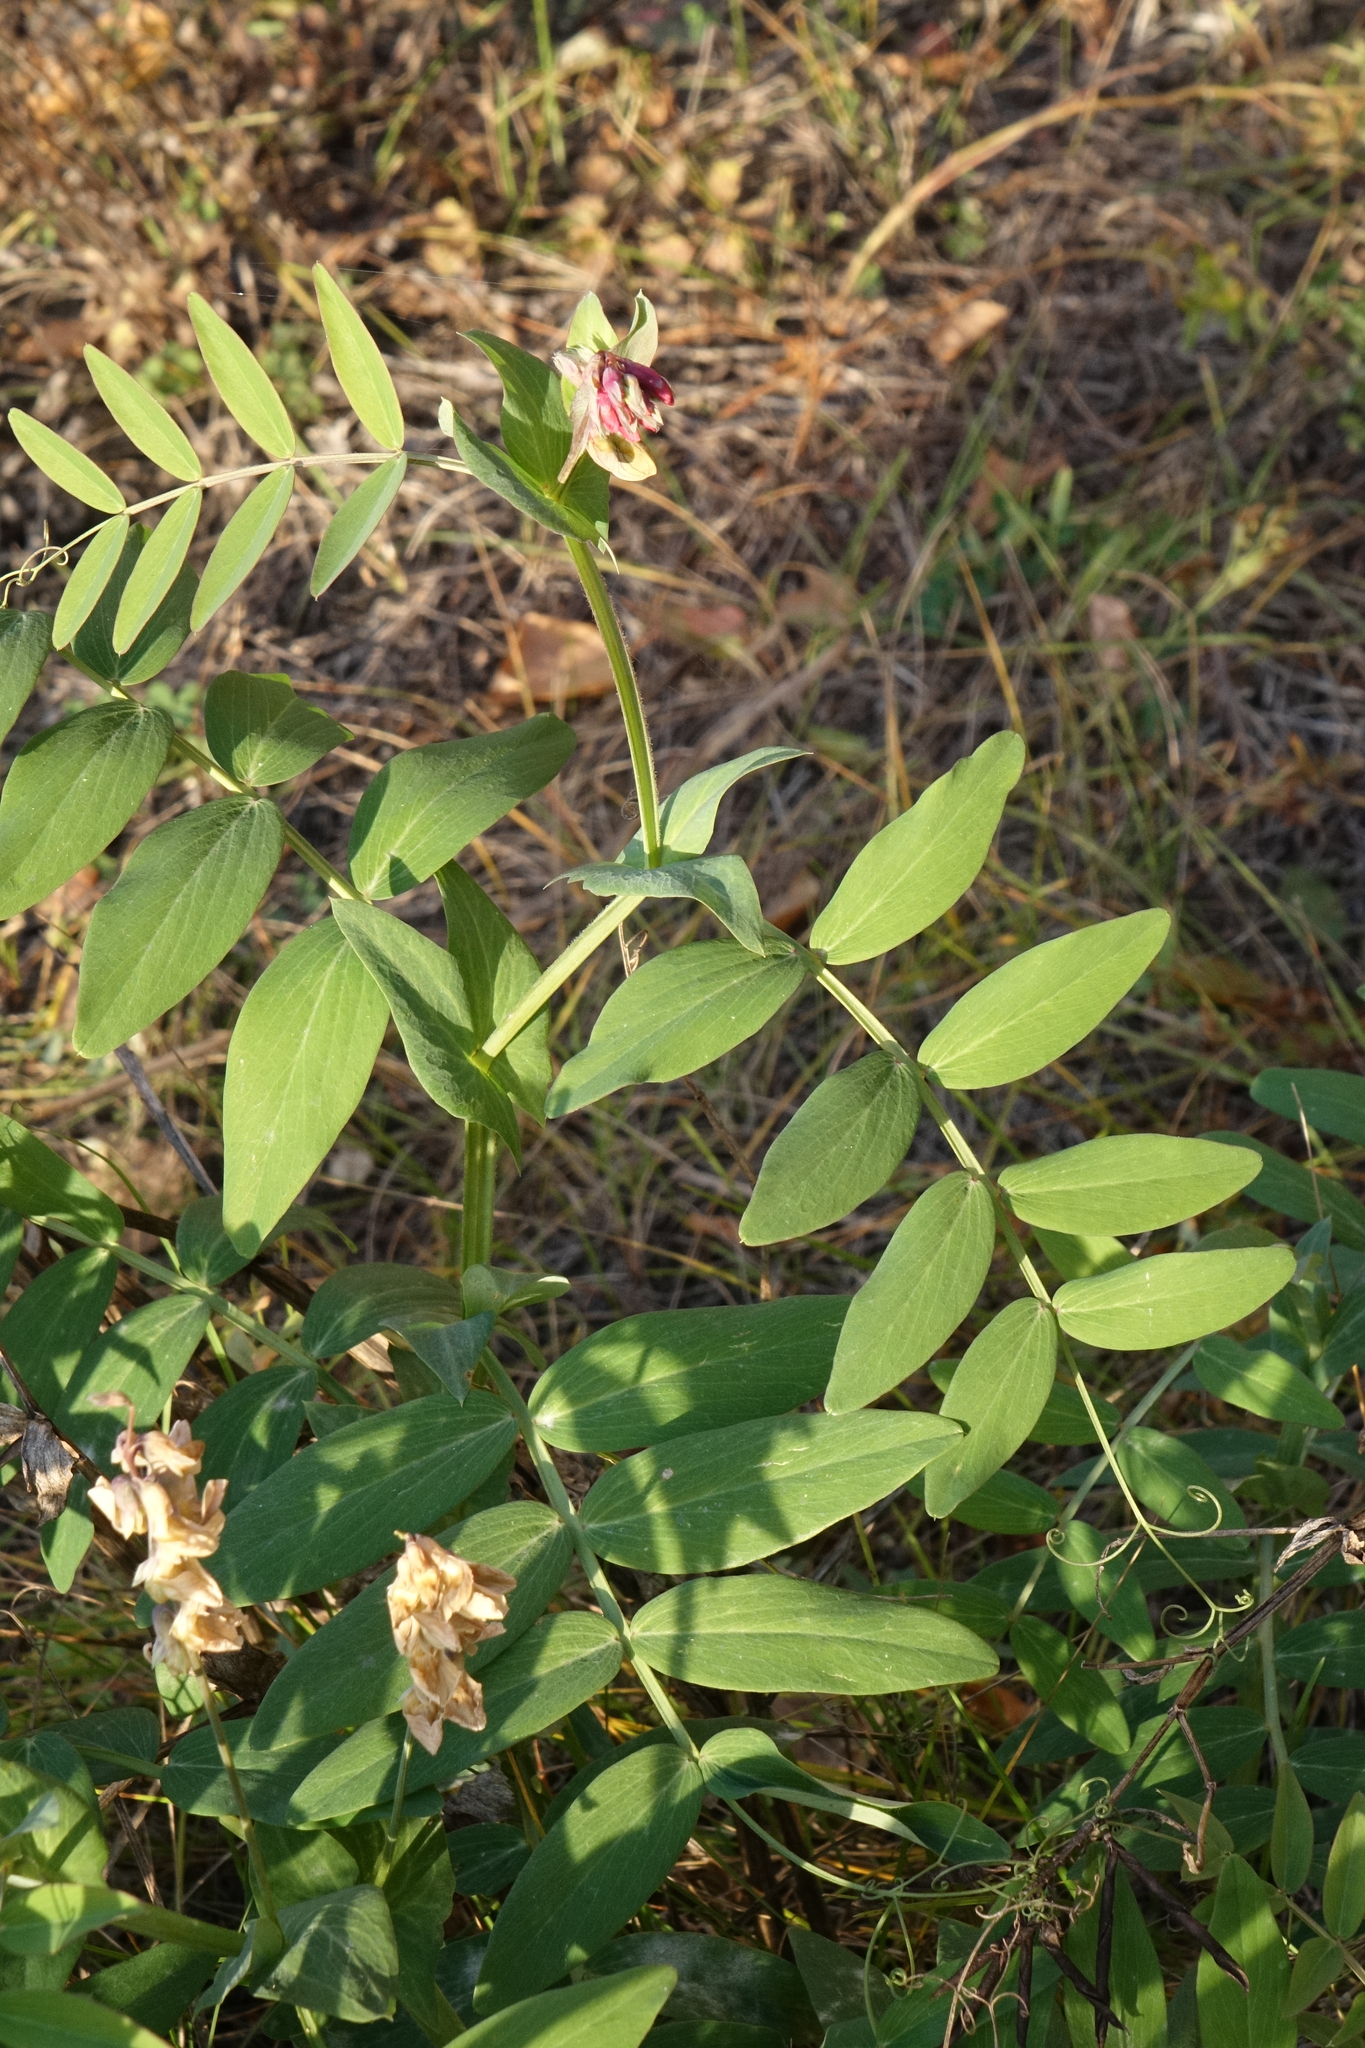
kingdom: Plantae
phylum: Tracheophyta
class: Magnoliopsida
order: Fabales
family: Fabaceae
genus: Lathyrus
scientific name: Lathyrus pisiformis
